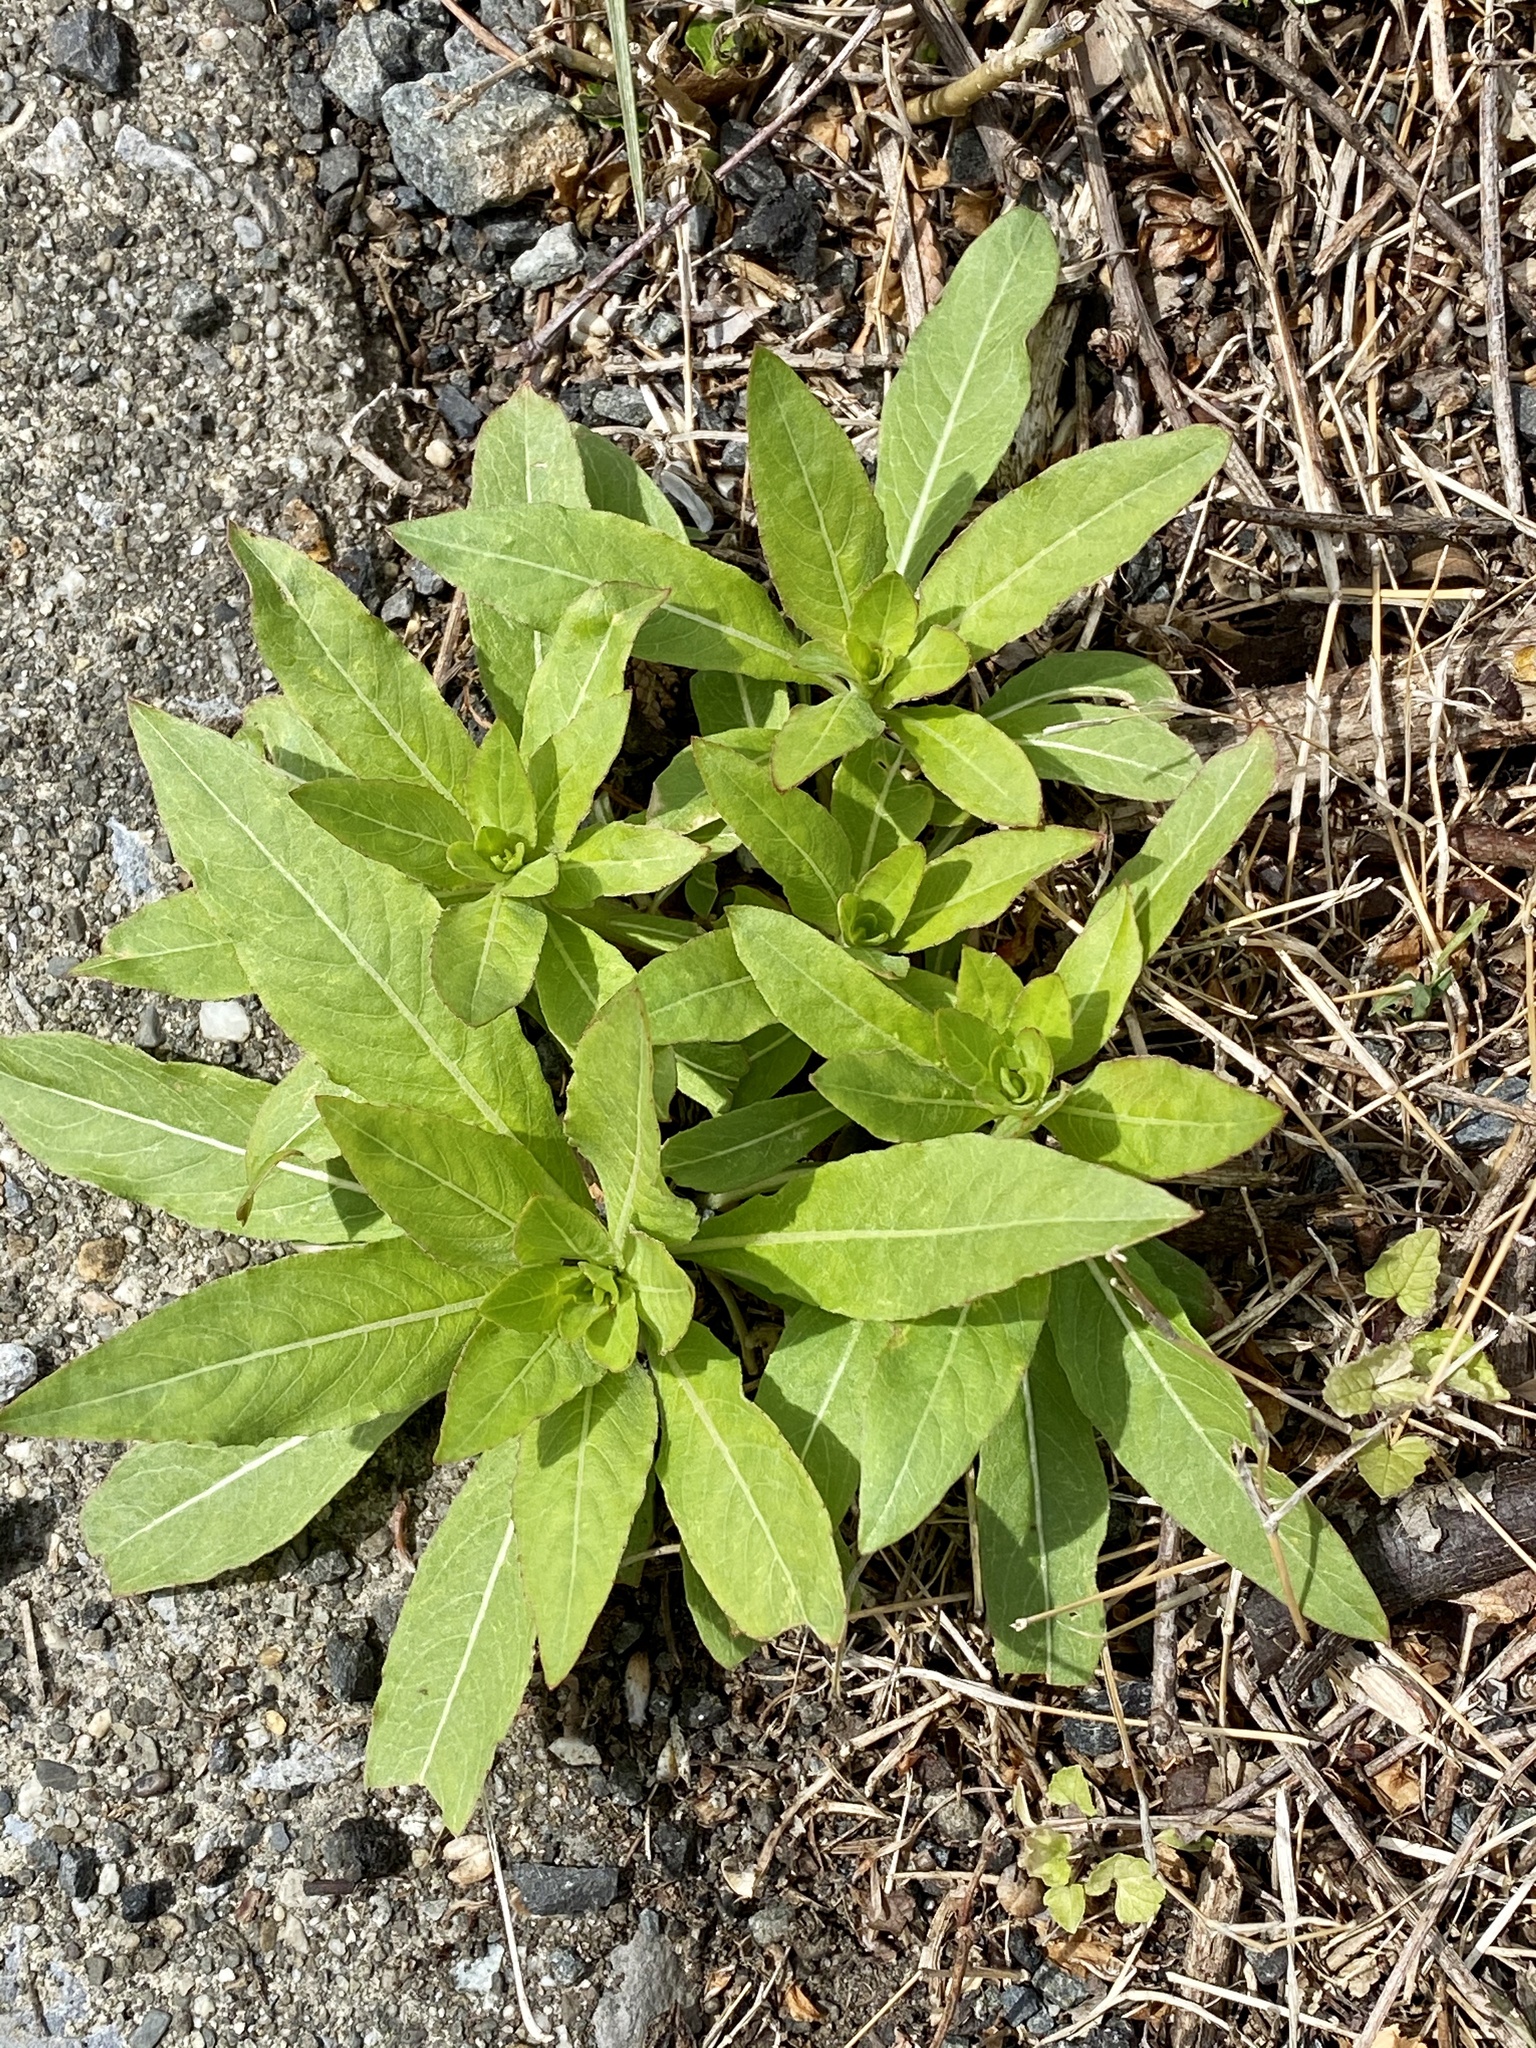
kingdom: Plantae
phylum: Tracheophyta
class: Magnoliopsida
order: Myrtales
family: Onagraceae
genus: Oenothera
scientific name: Oenothera biennis
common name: Common evening-primrose
